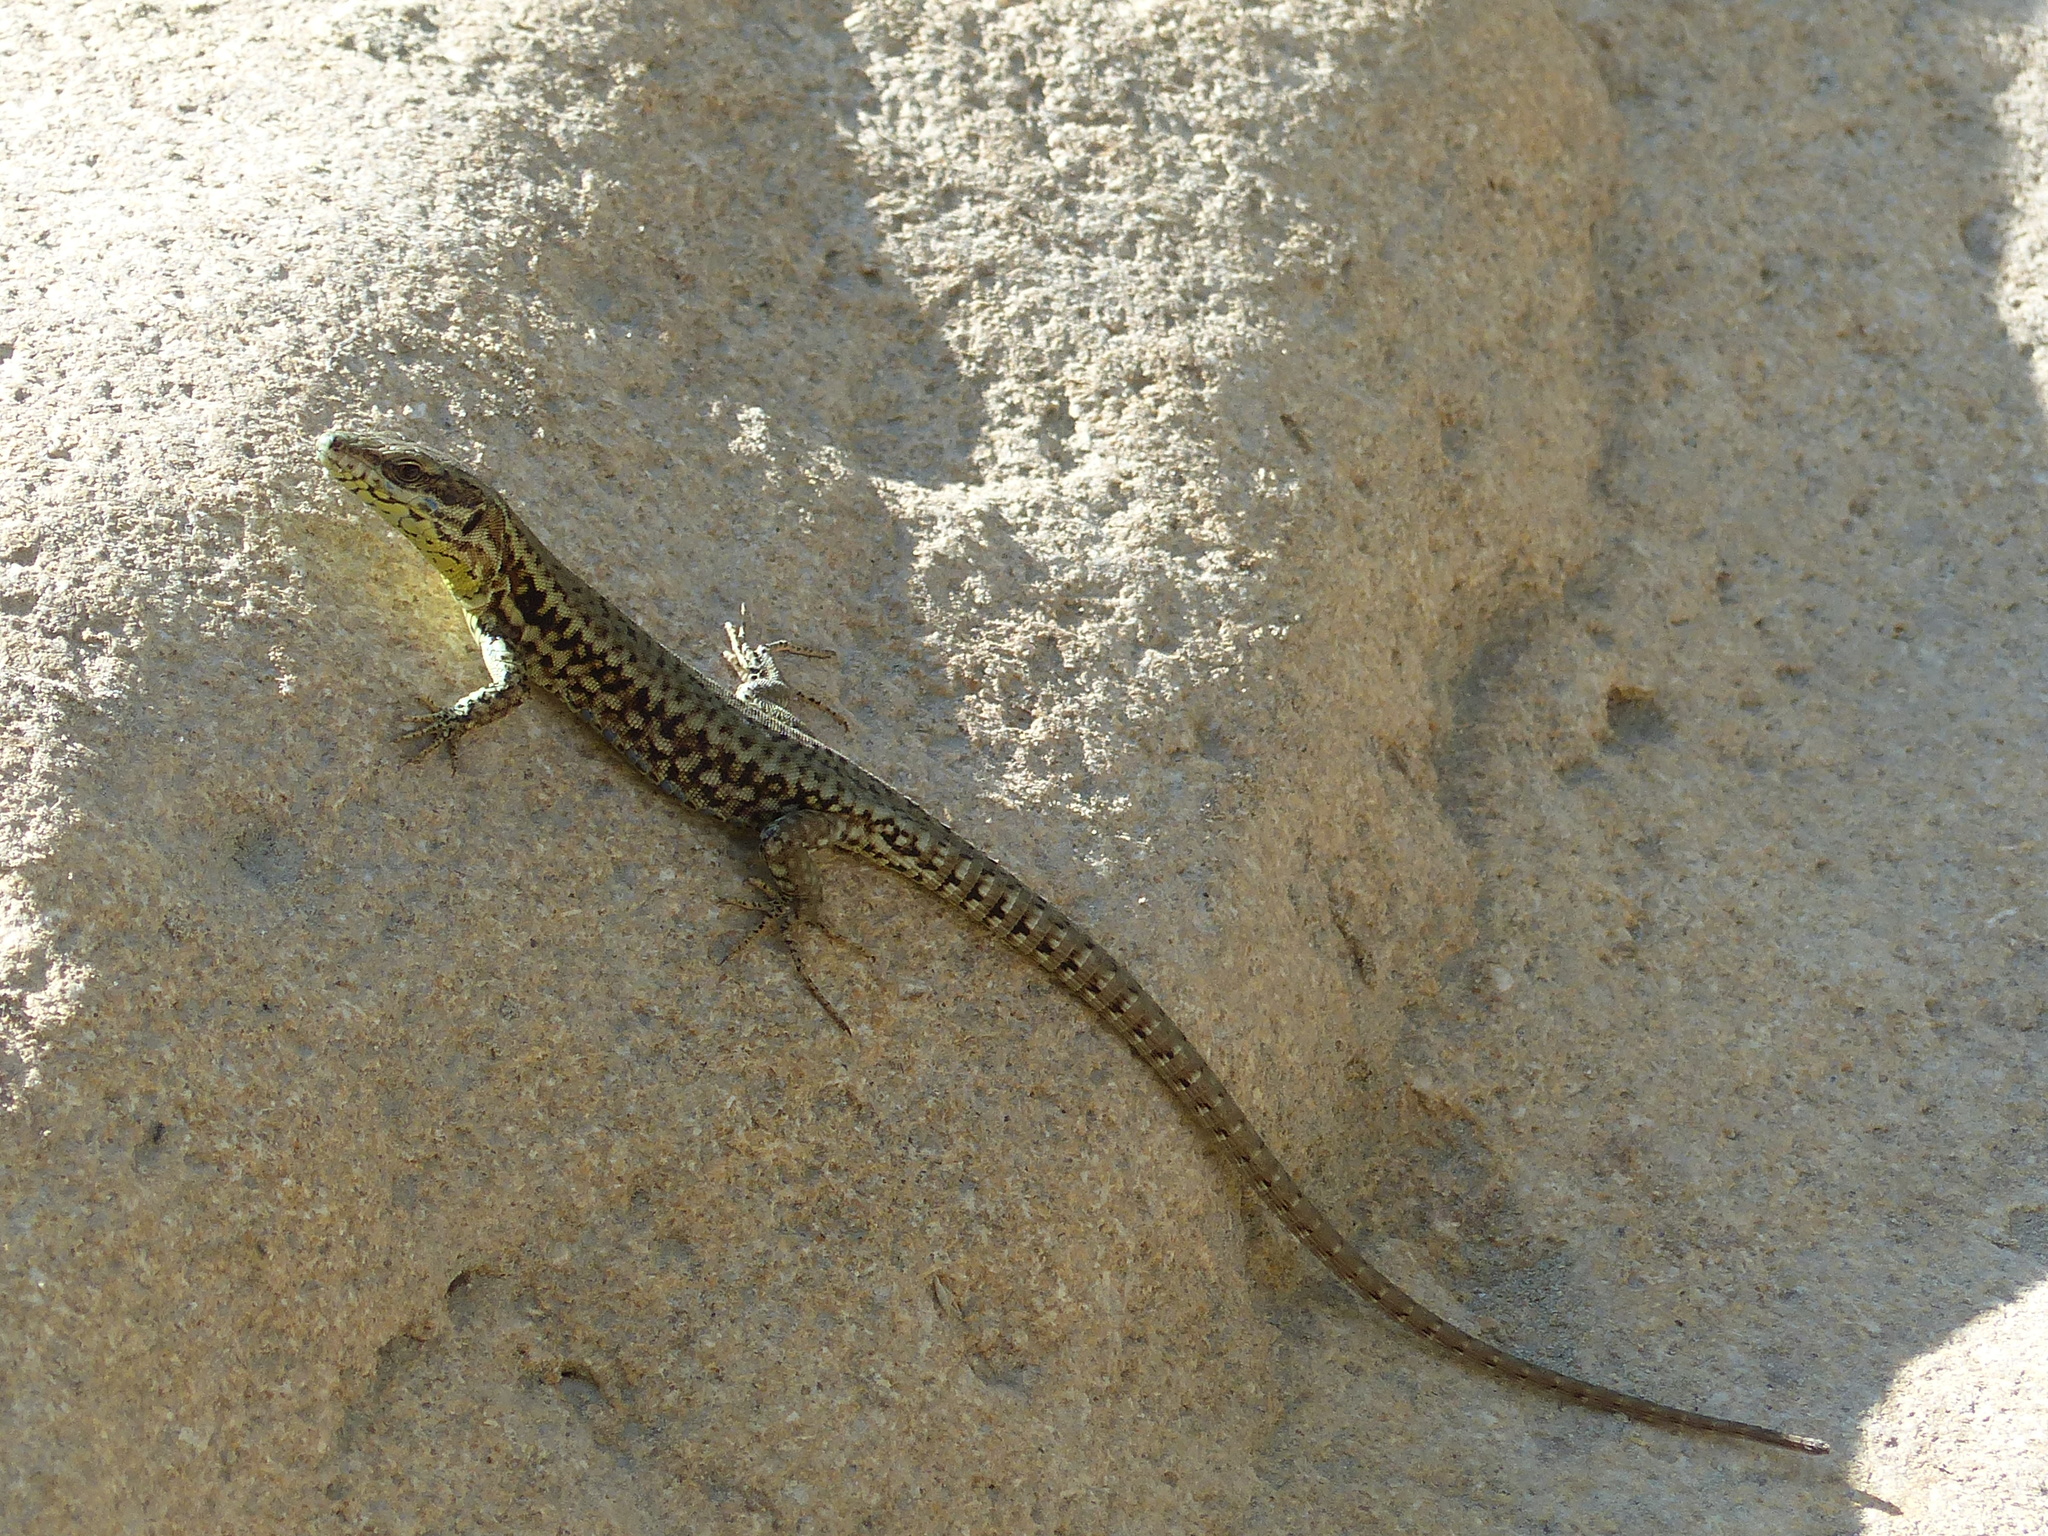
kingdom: Animalia
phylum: Chordata
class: Squamata
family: Lacertidae
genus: Podarcis
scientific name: Podarcis muralis
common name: Common wall lizard
